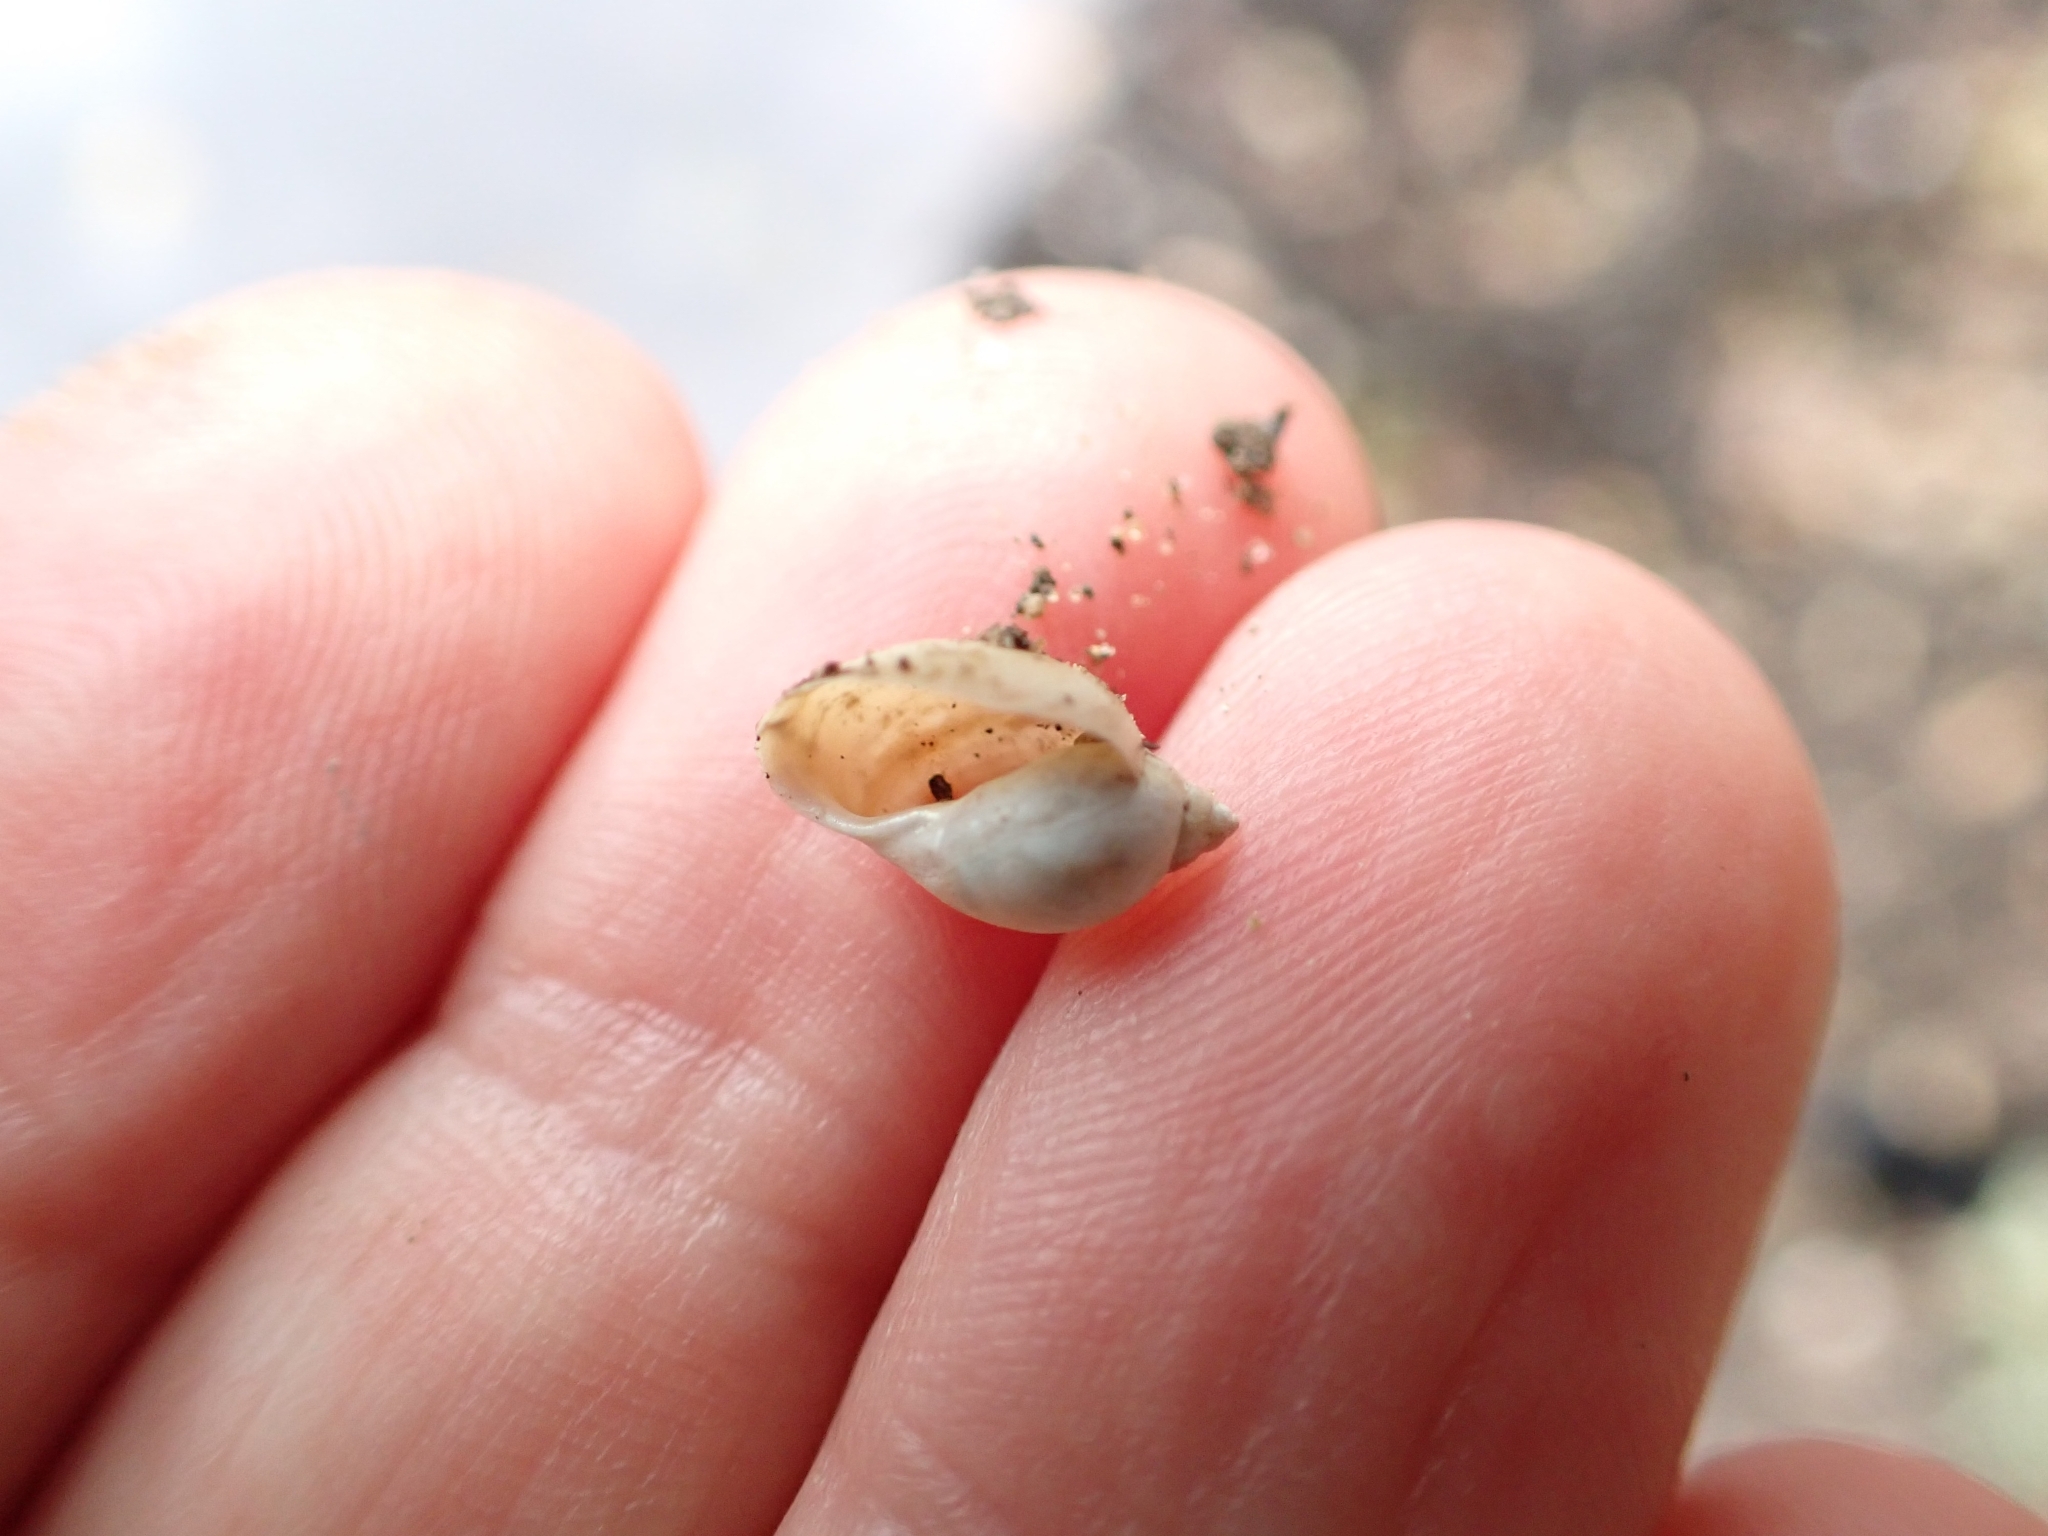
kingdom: Animalia
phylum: Mollusca
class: Gastropoda
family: Physidae
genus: Physella
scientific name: Physella acuta
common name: European physa
